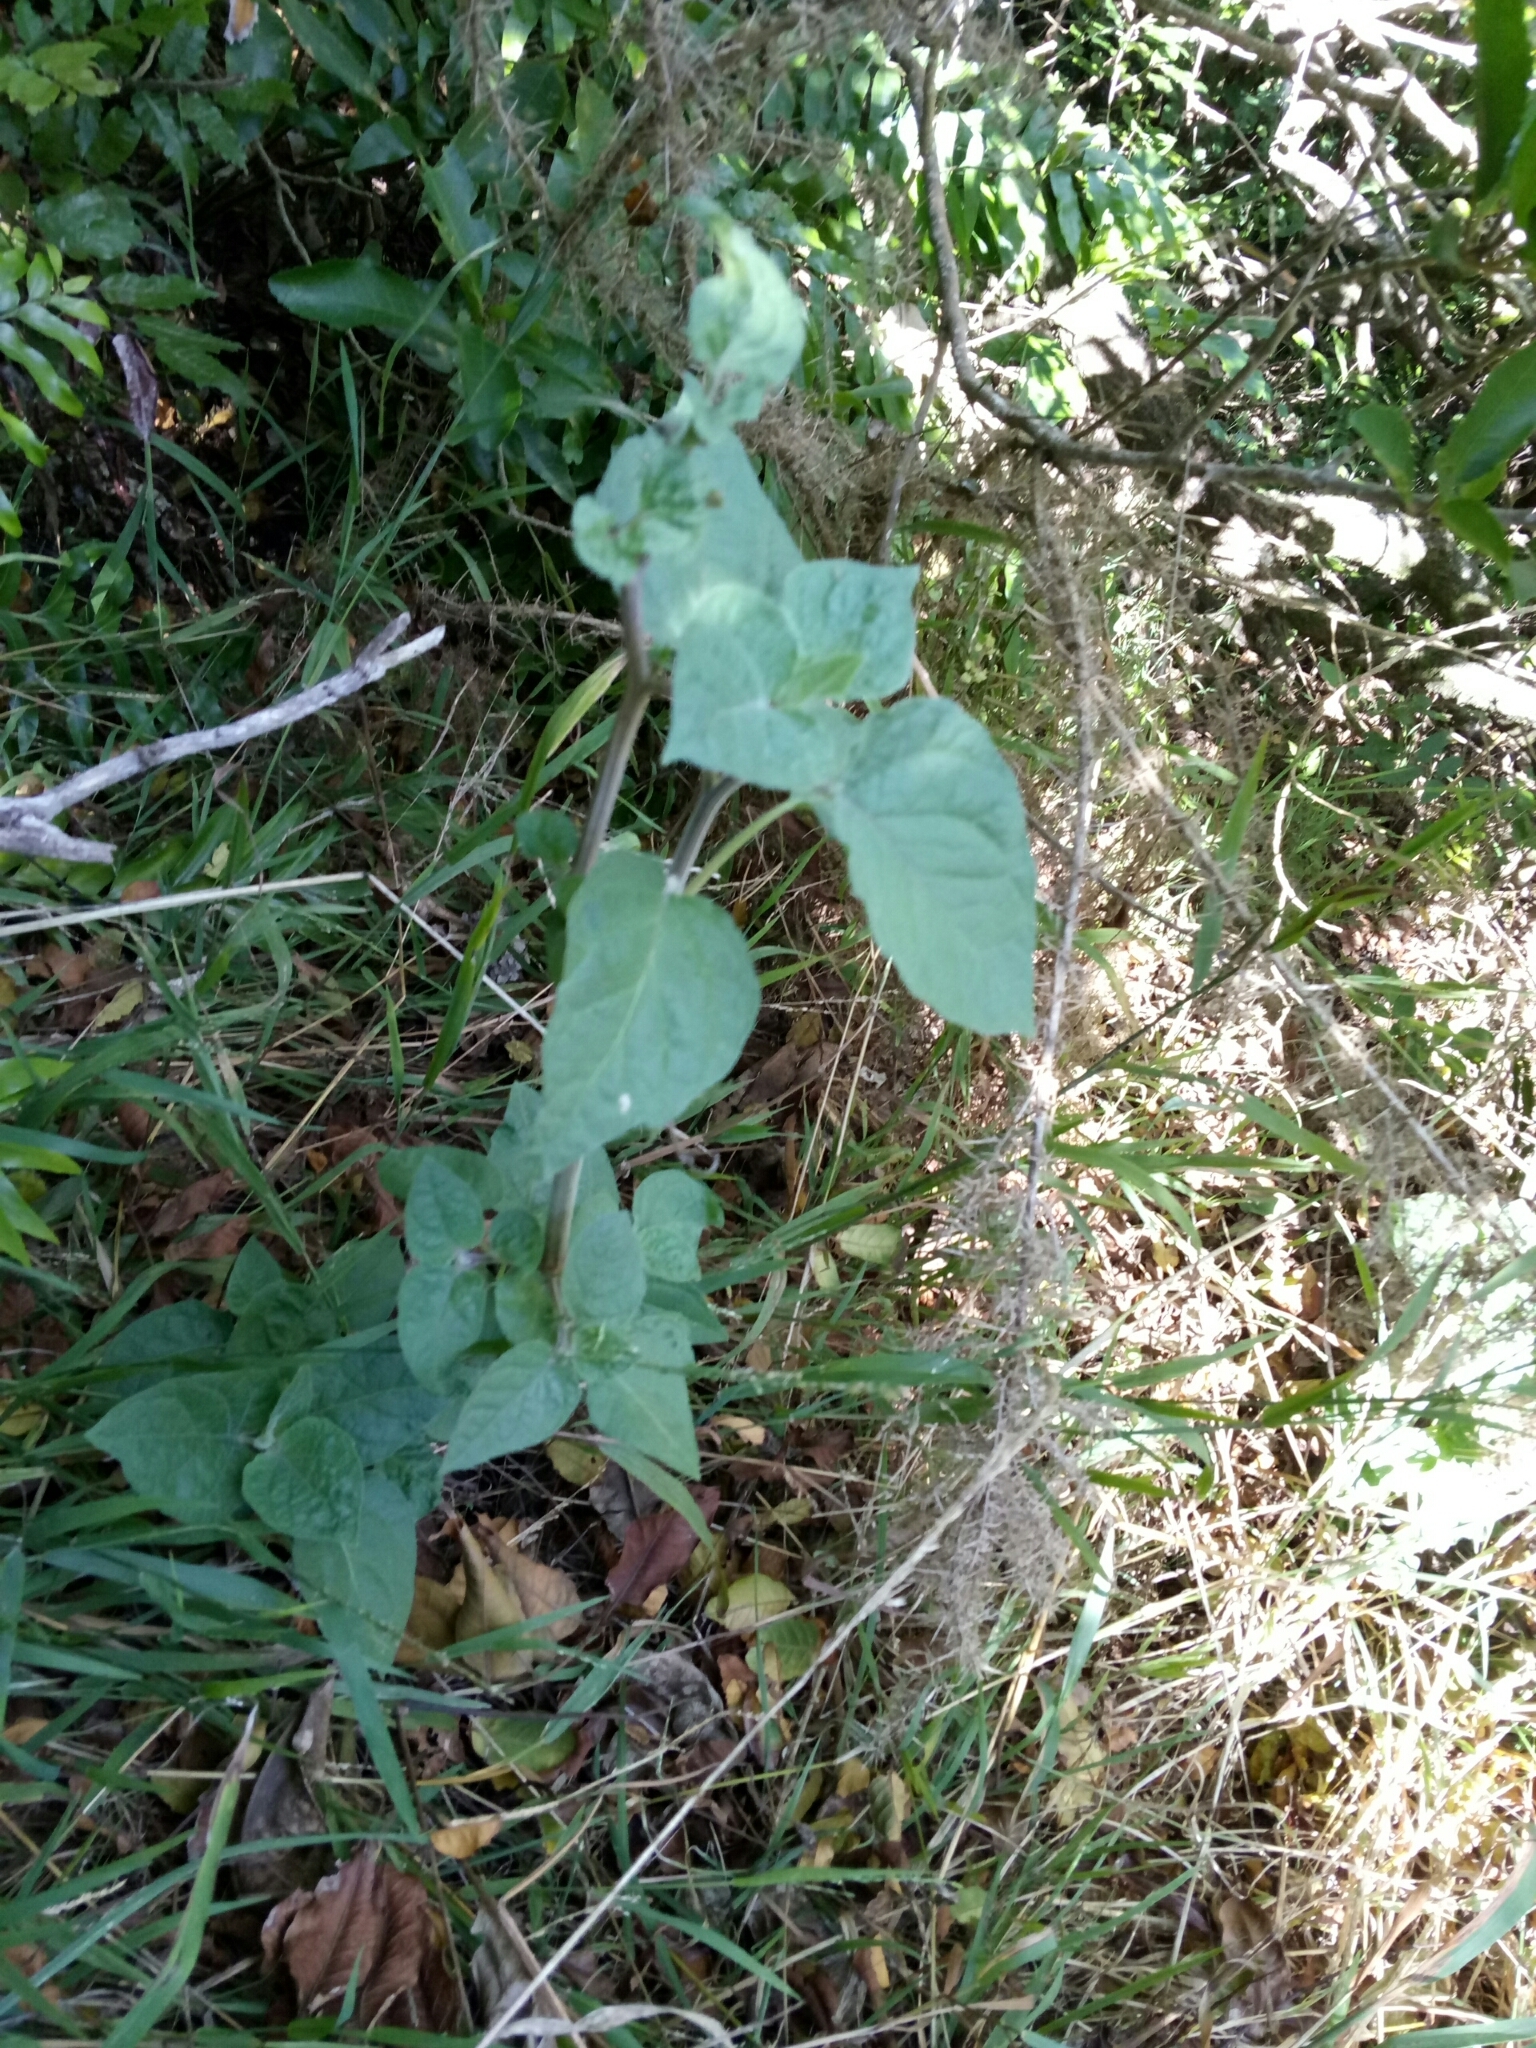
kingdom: Plantae
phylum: Tracheophyta
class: Magnoliopsida
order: Solanales
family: Solanaceae
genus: Physalis
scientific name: Physalis peruviana
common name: Cape-gooseberry
